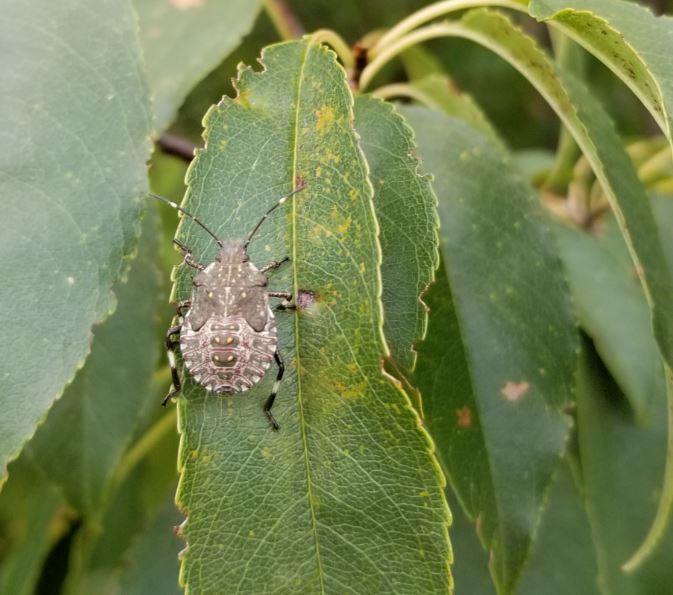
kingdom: Animalia
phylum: Arthropoda
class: Insecta
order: Hemiptera
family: Pentatomidae
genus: Halyomorpha
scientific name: Halyomorpha halys
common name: Brown marmorated stink bug
